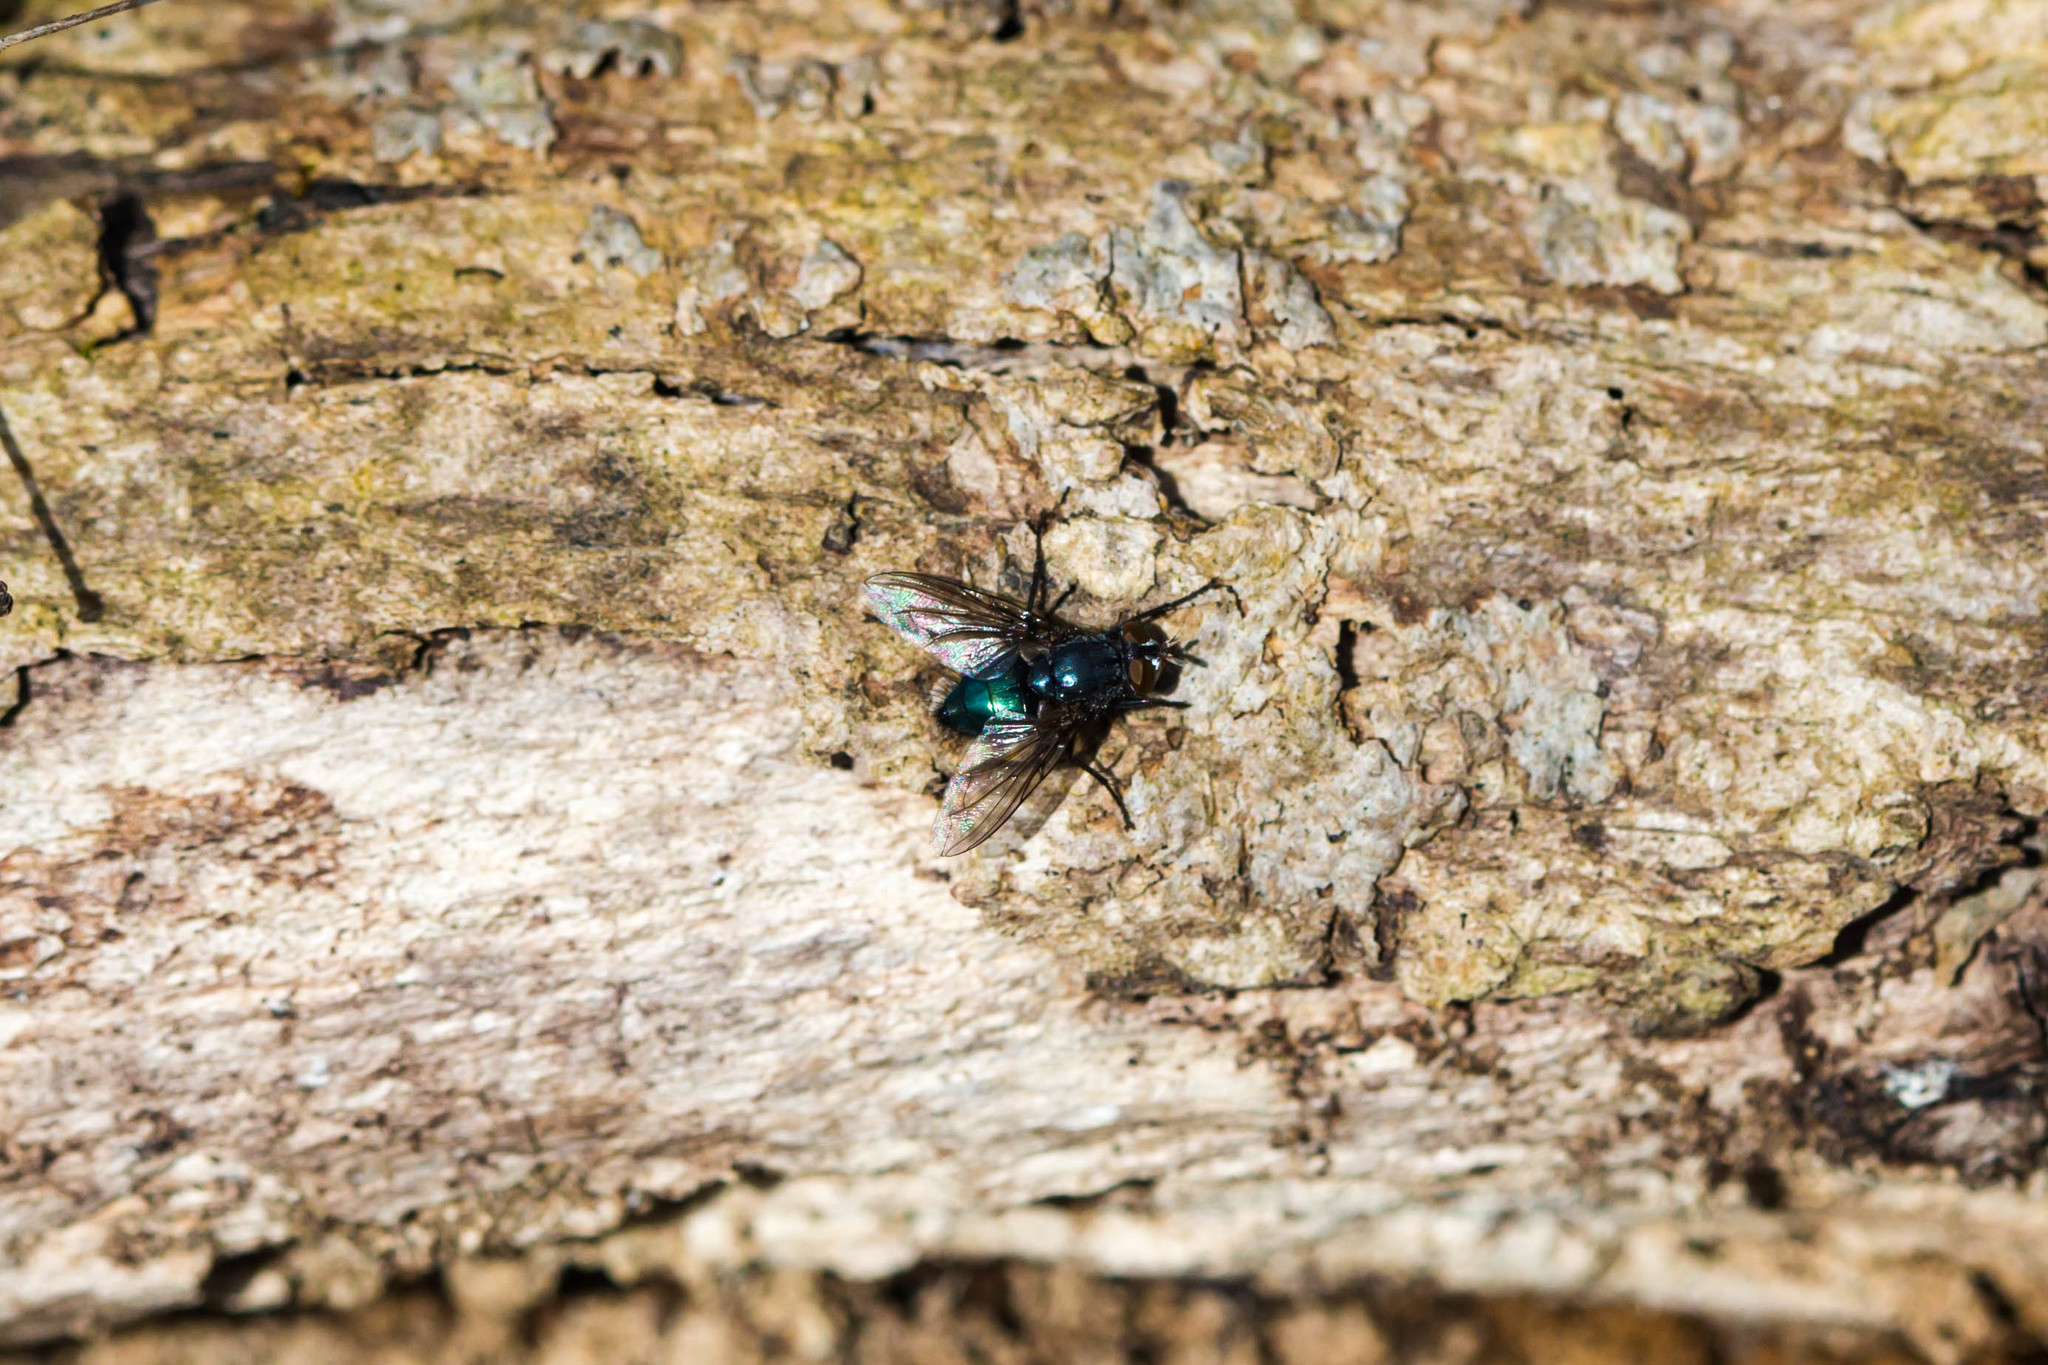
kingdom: Animalia
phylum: Arthropoda
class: Insecta
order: Diptera
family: Calliphoridae
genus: Cynomya
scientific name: Cynomya cadaverina
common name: Shiny blue bottle fly
